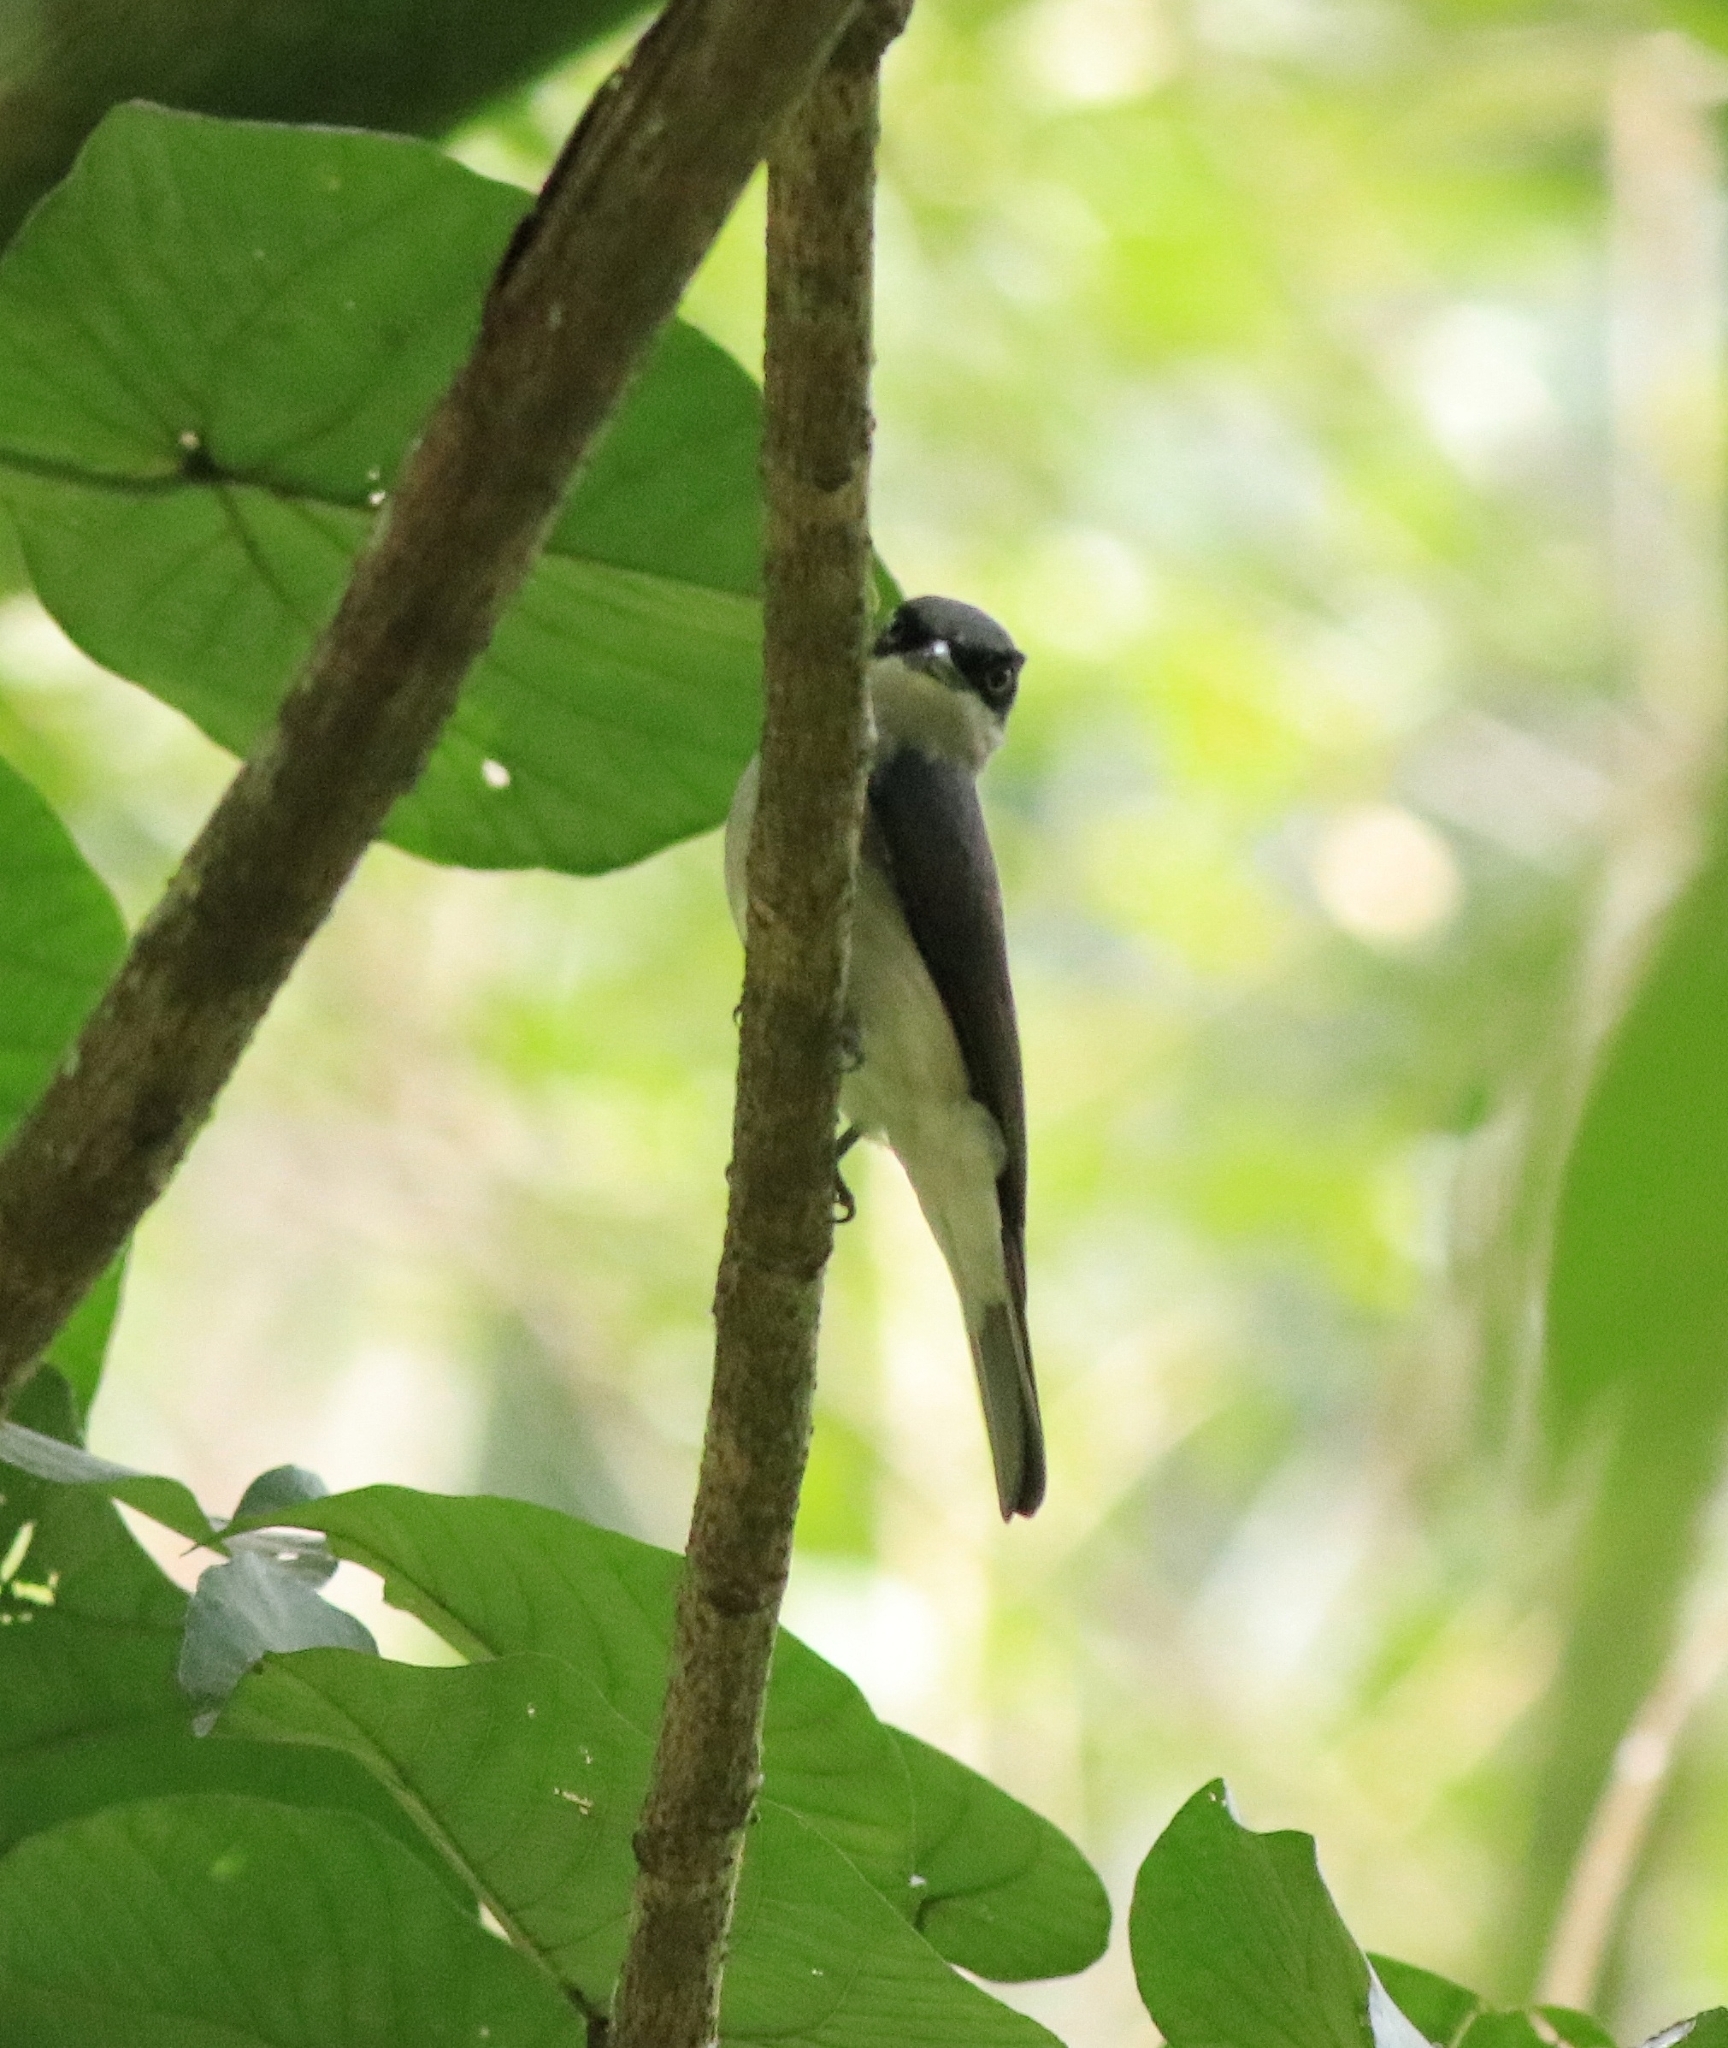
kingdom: Animalia
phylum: Chordata
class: Aves
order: Passeriformes
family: Tephrodornithidae
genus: Tephrodornis
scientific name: Tephrodornis sylvicola
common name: Malabar woodshrike
